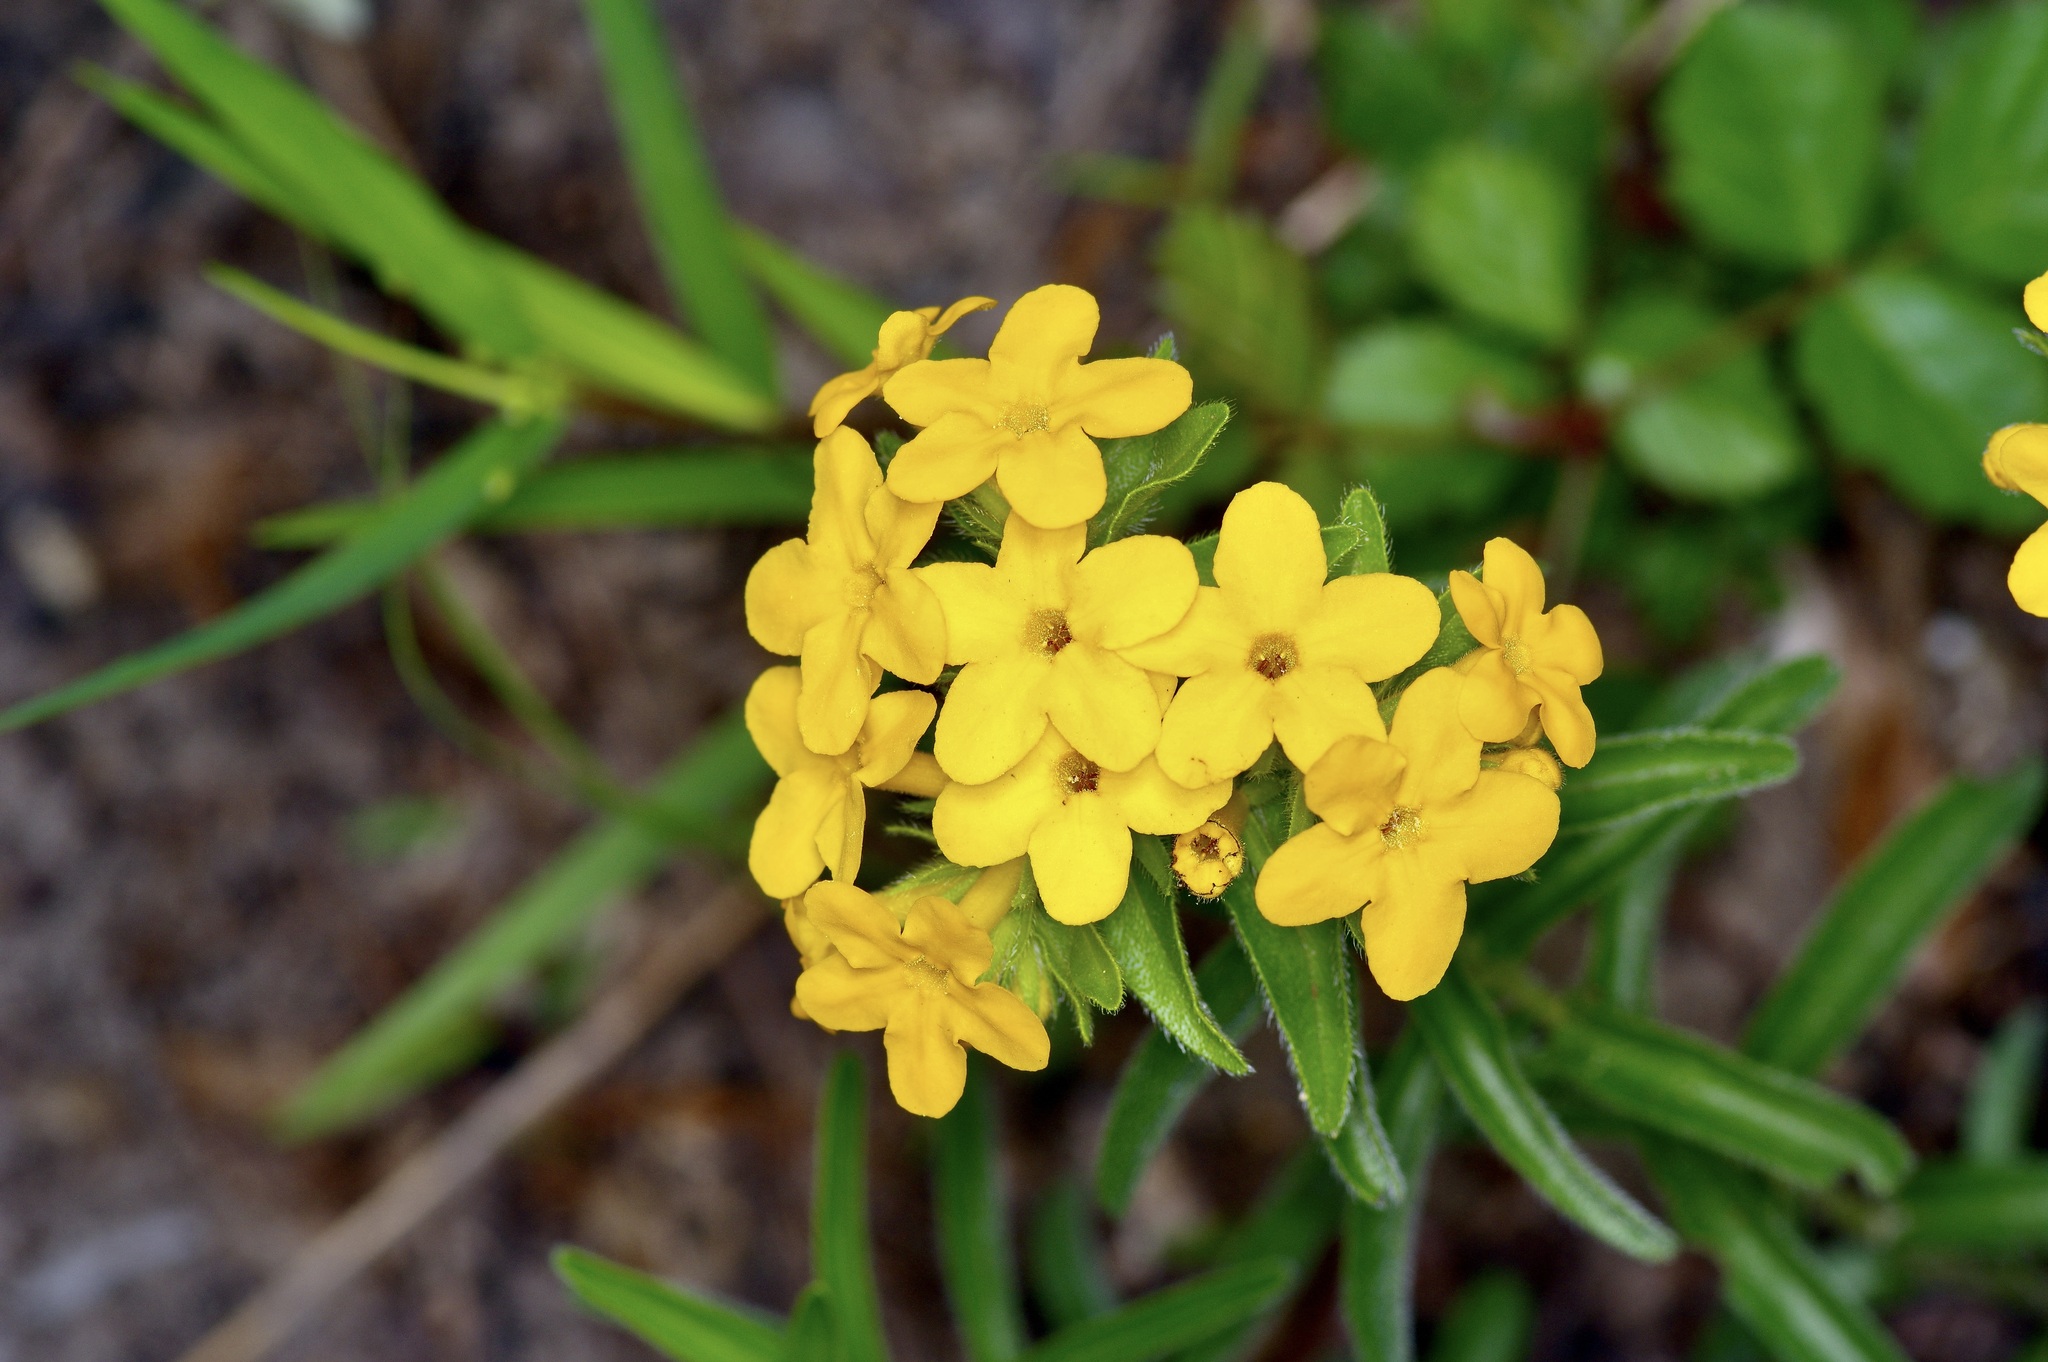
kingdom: Plantae
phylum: Tracheophyta
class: Magnoliopsida
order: Boraginales
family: Boraginaceae
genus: Lithospermum
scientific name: Lithospermum caroliniense
